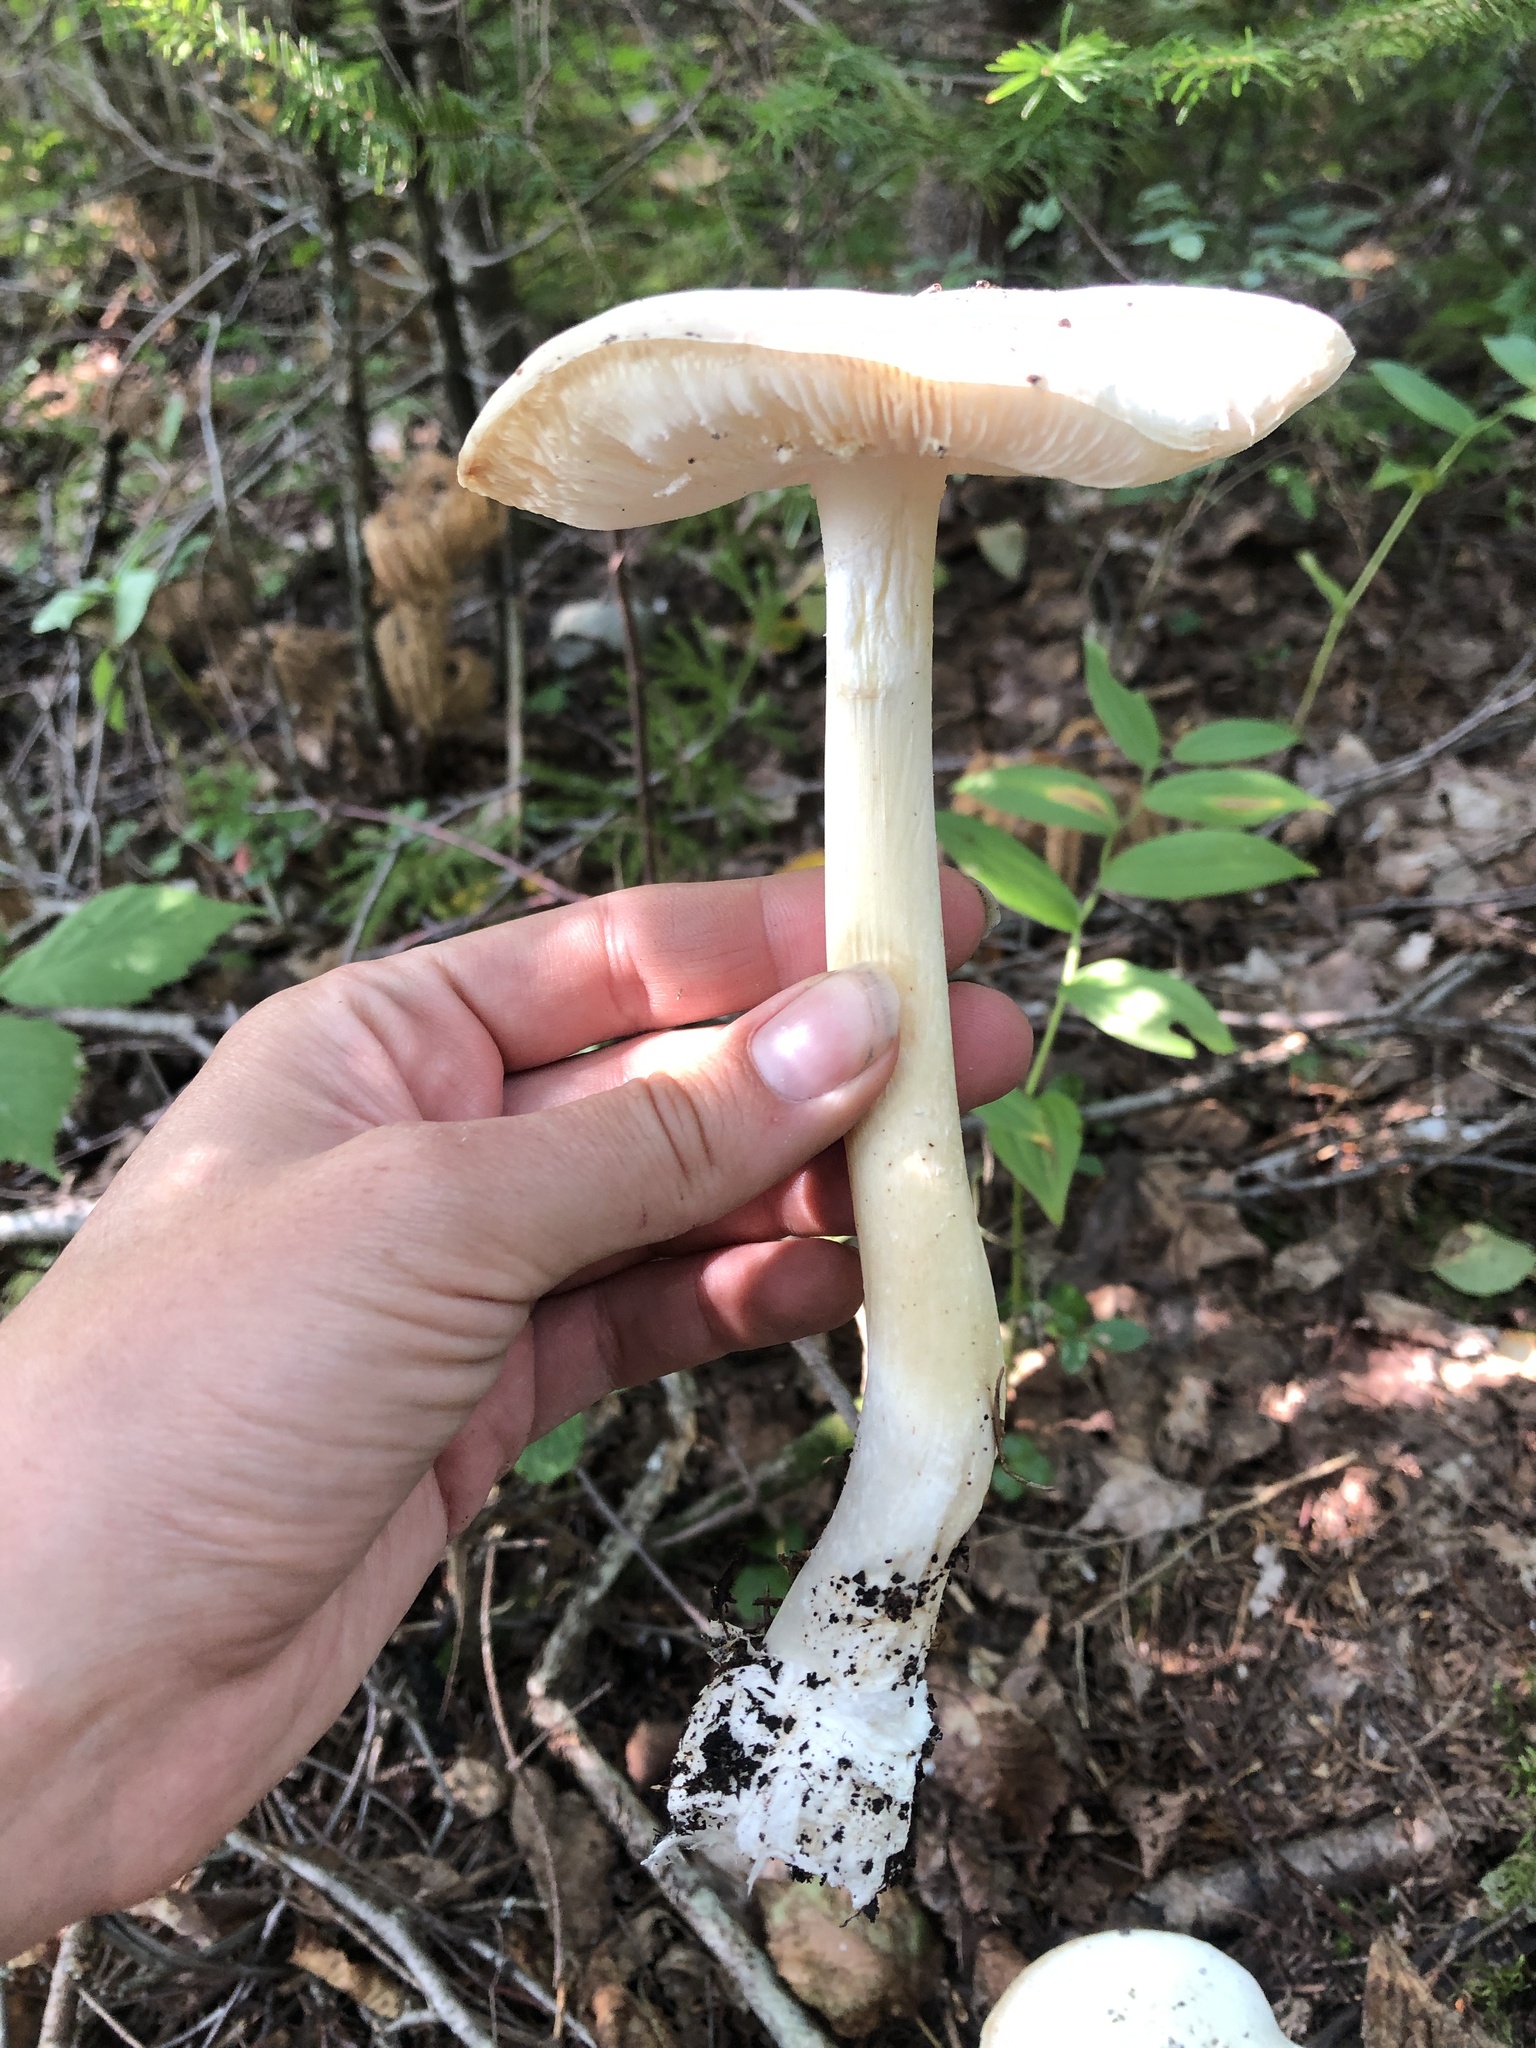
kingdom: Fungi
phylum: Basidiomycota
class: Agaricomycetes
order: Agaricales
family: Amanitaceae
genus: Amanita
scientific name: Amanita bisporigera
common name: Eastern north american destroying angel
